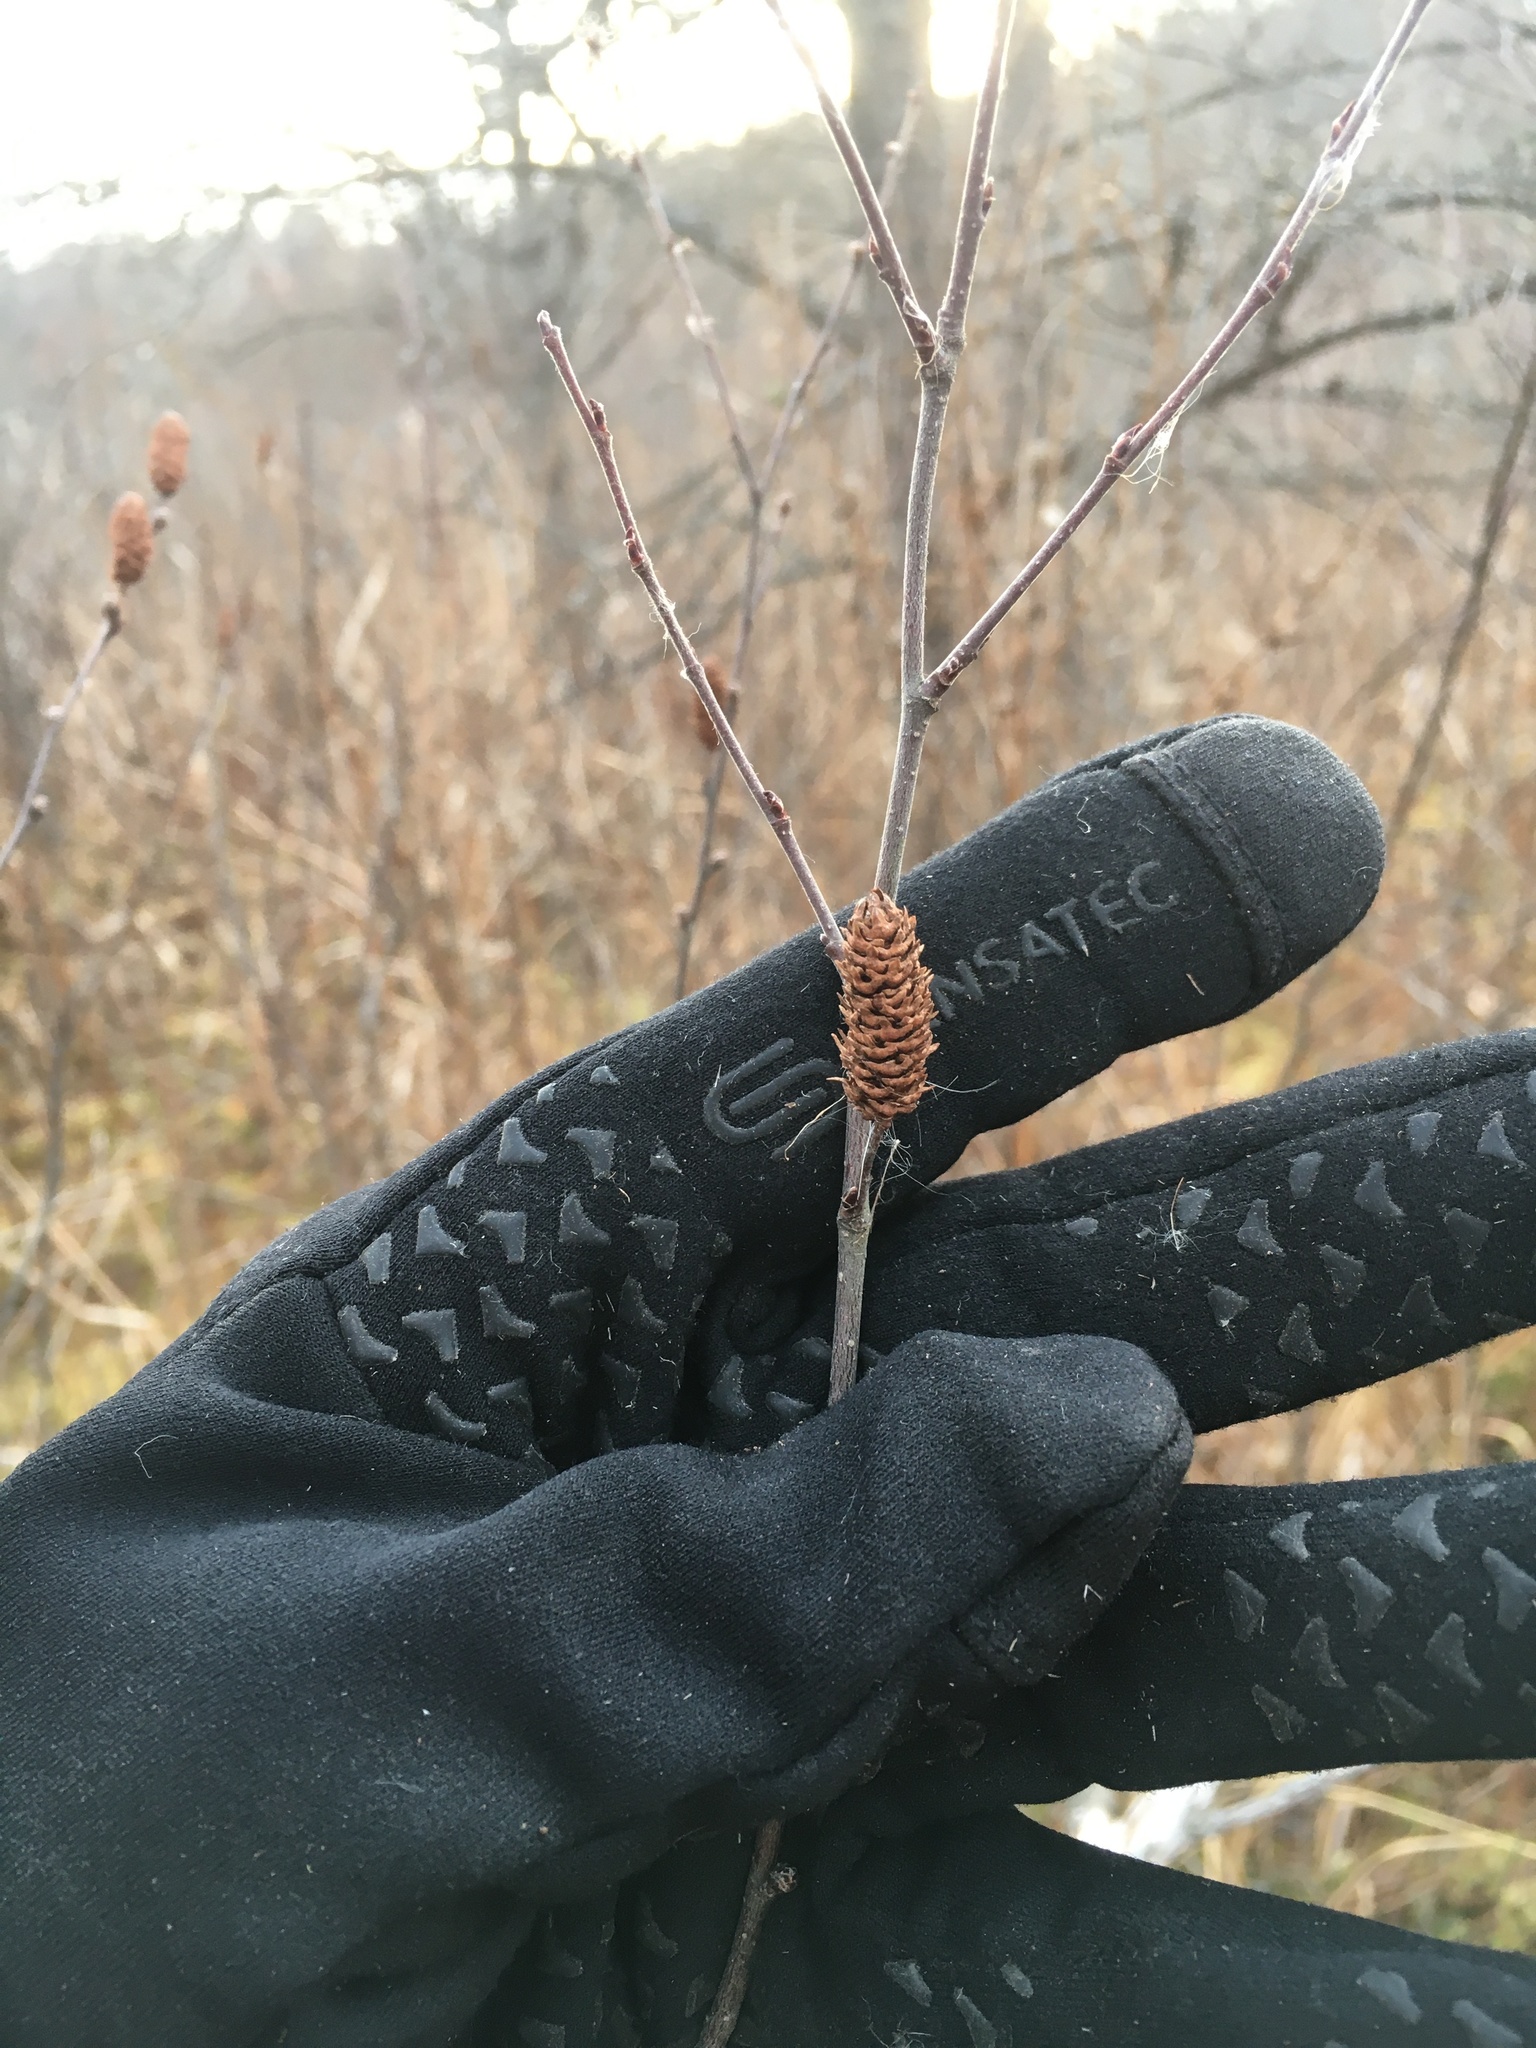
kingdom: Plantae
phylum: Tracheophyta
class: Magnoliopsida
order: Fagales
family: Betulaceae
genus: Betula
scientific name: Betula pumila
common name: Bog birch
